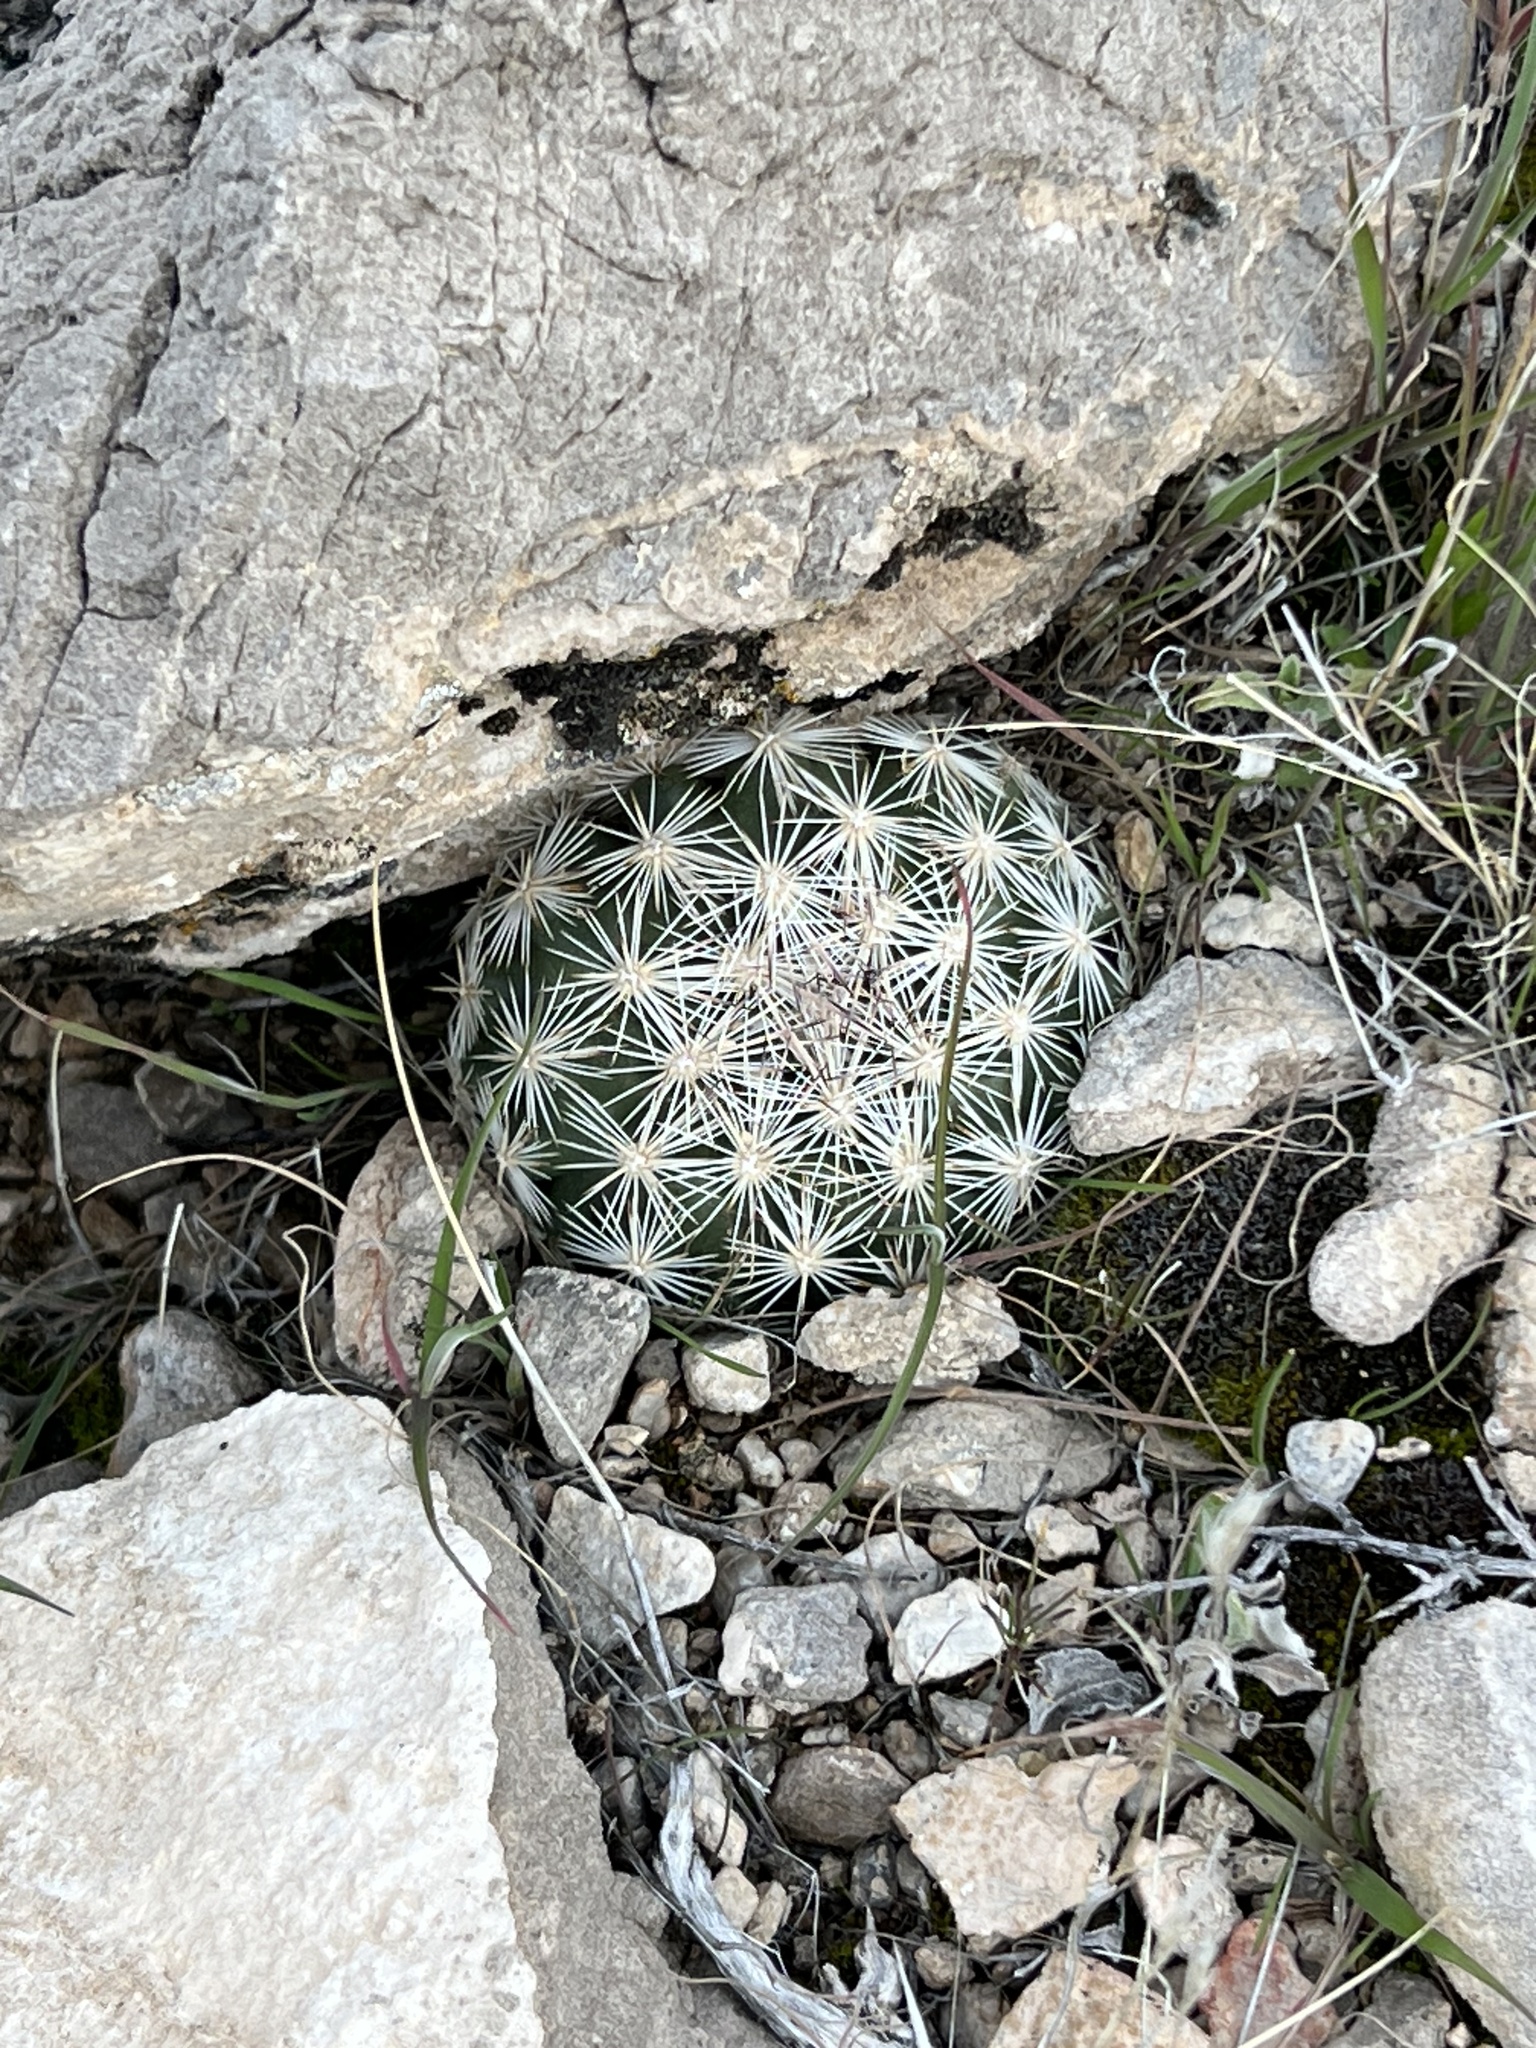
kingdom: Plantae
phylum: Tracheophyta
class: Magnoliopsida
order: Caryophyllales
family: Cactaceae
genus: Pelecyphora
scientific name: Pelecyphora dasyacantha
